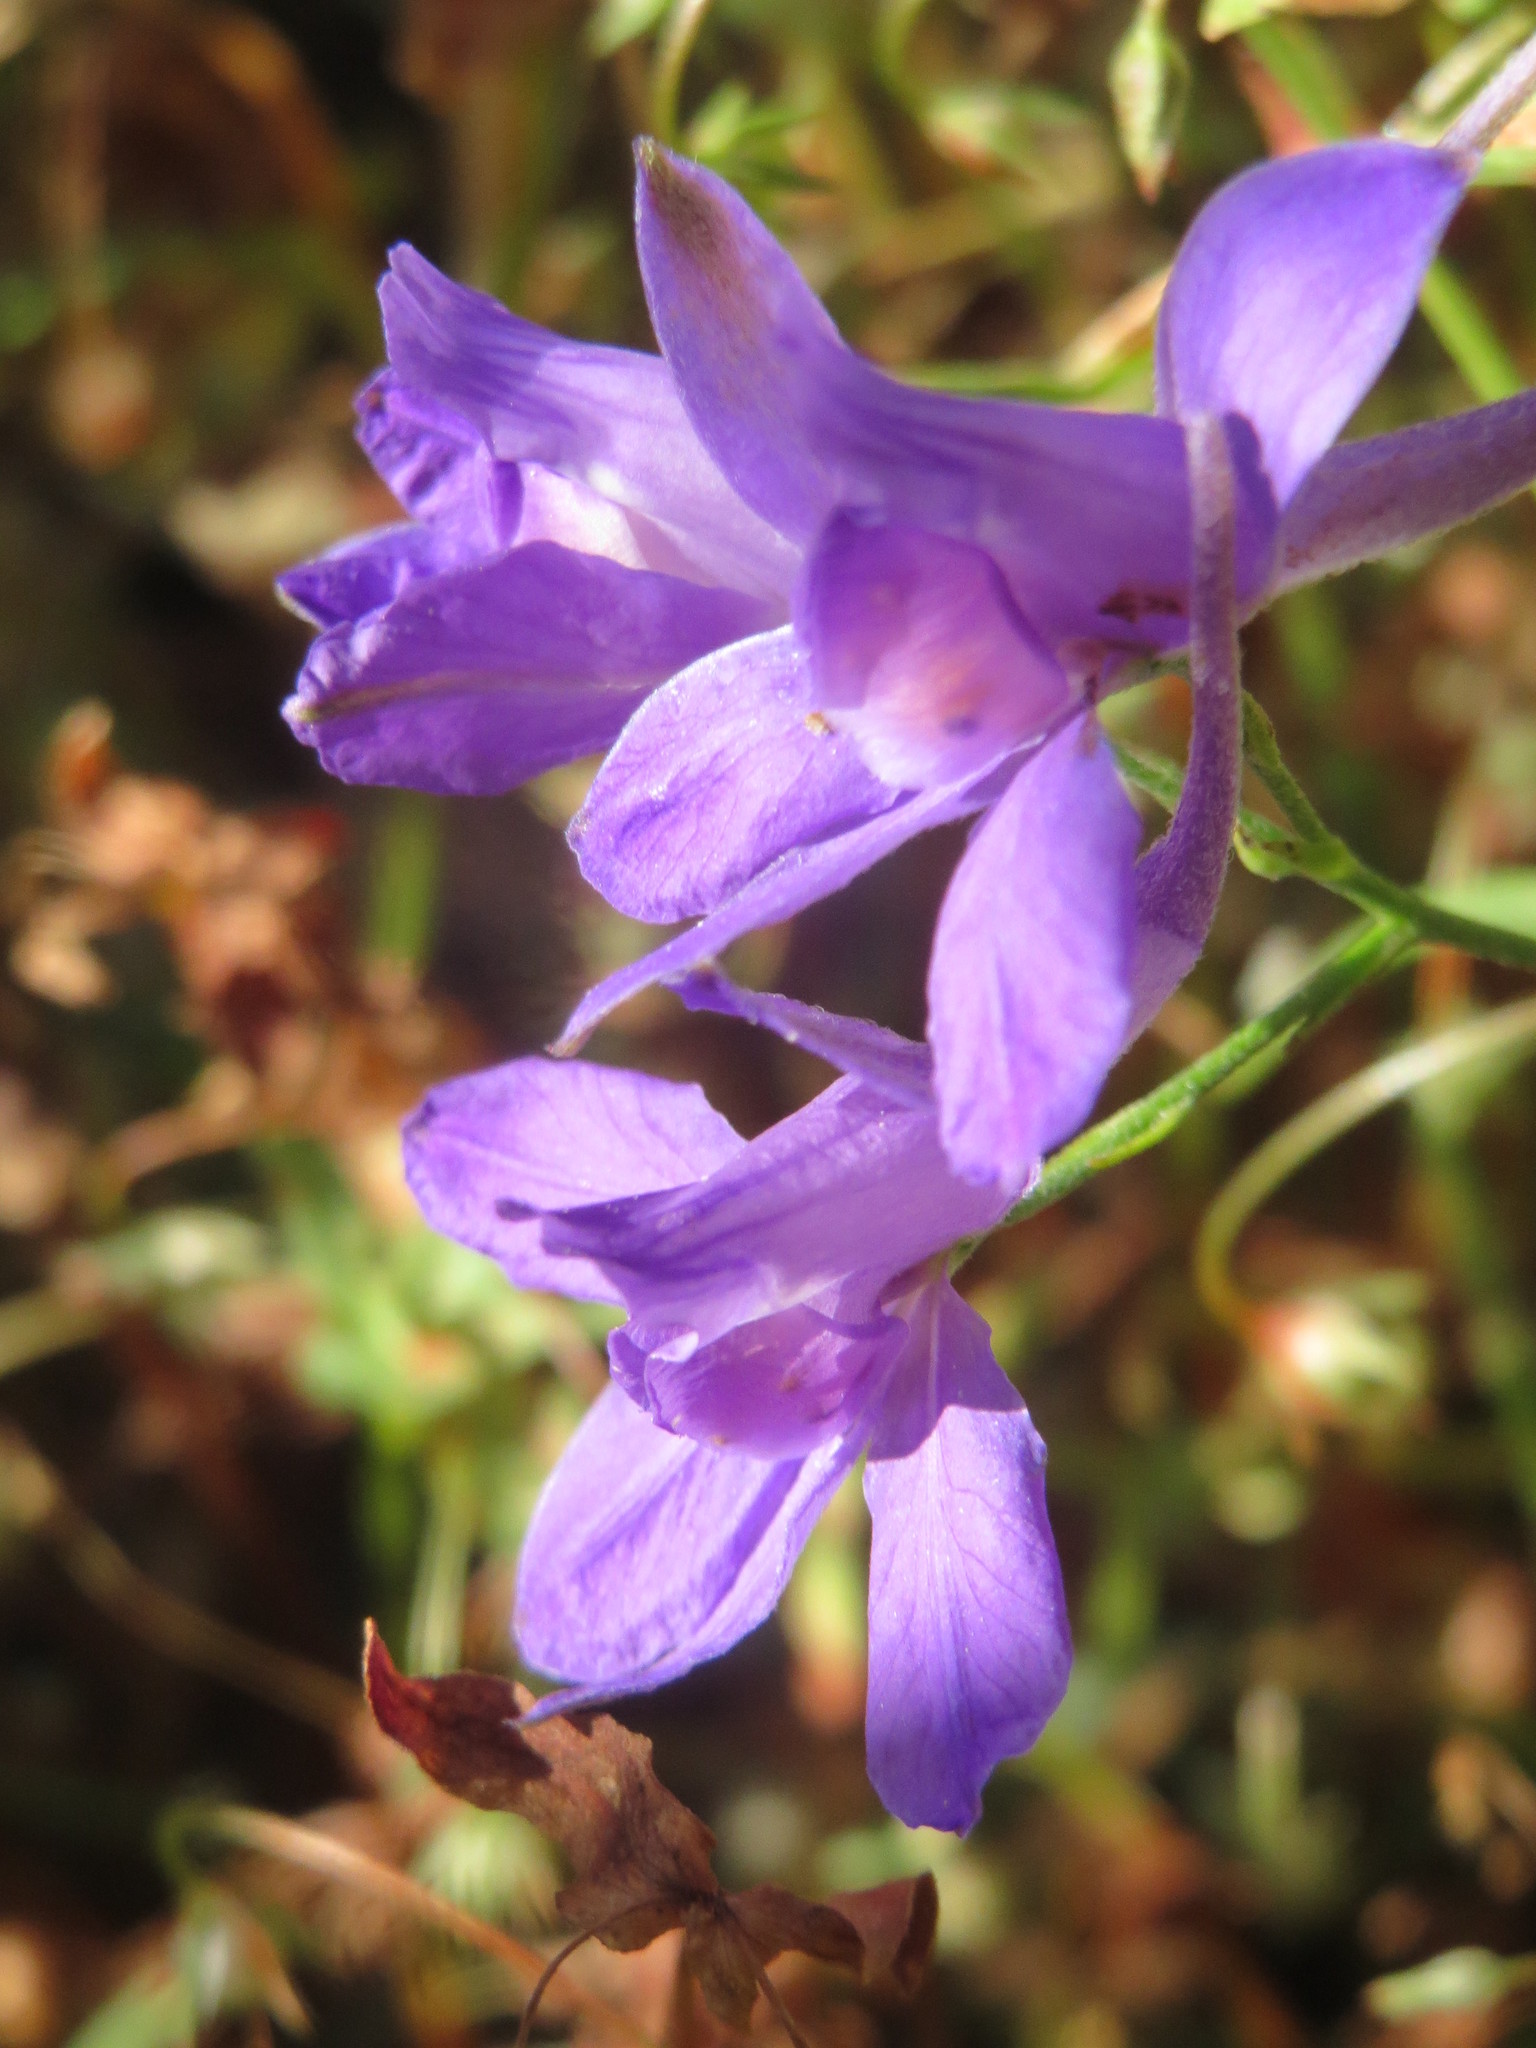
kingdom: Plantae
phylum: Tracheophyta
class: Magnoliopsida
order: Ranunculales
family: Ranunculaceae
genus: Delphinium
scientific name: Delphinium consolida
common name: Branching larkspur
